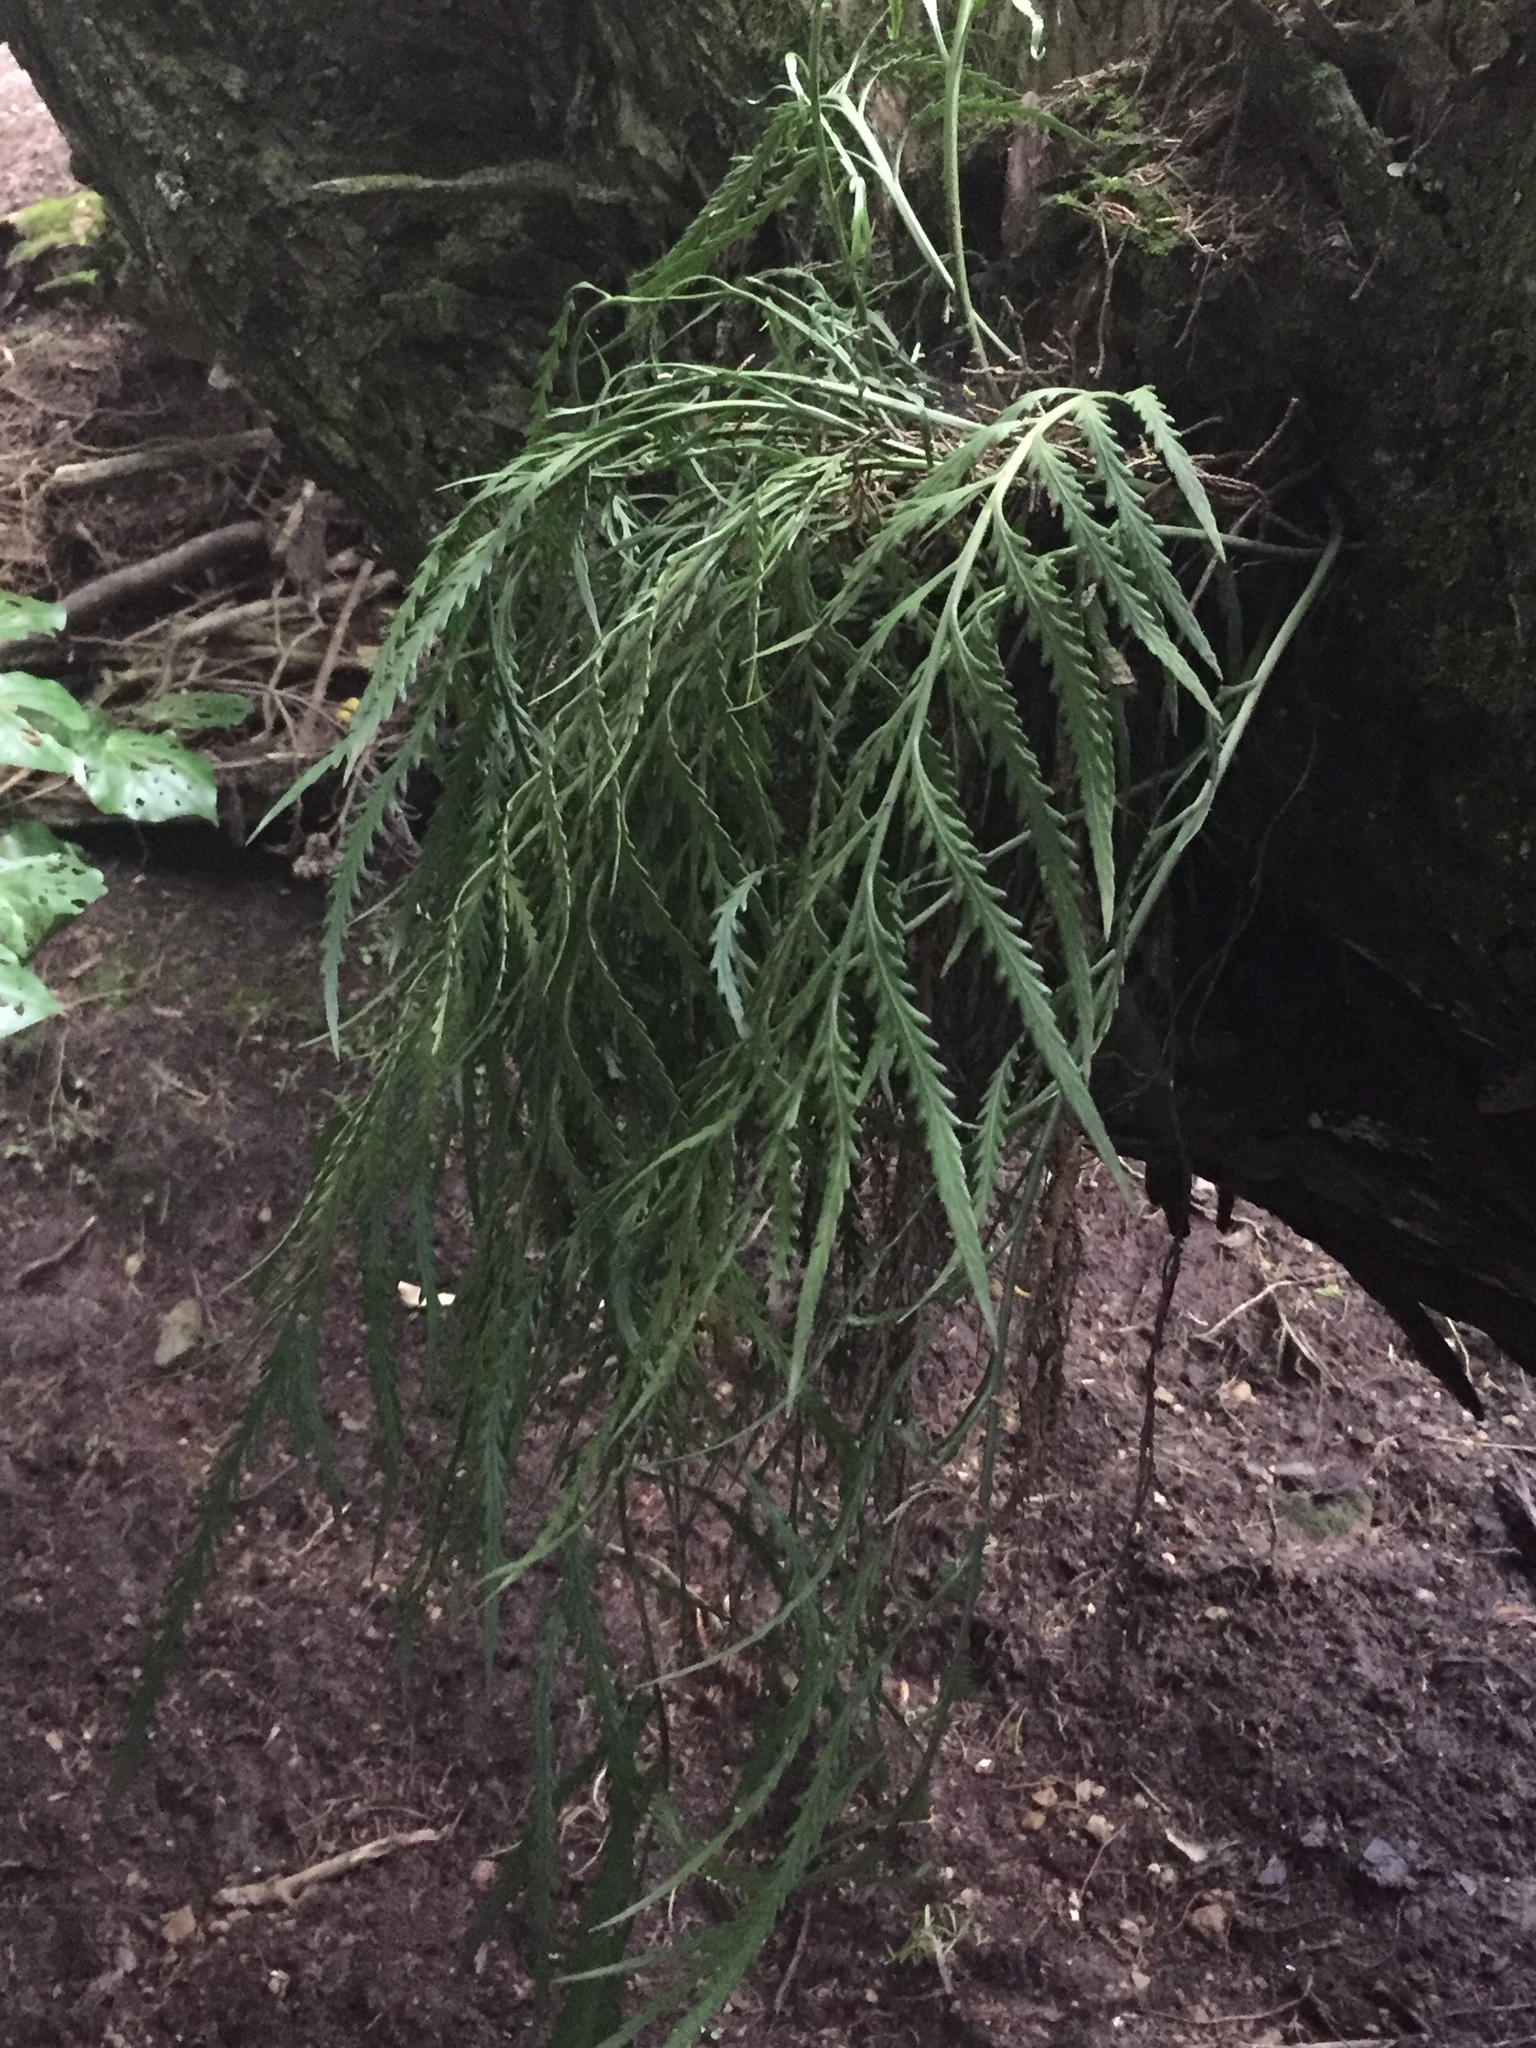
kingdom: Plantae
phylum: Tracheophyta
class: Polypodiopsida
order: Polypodiales
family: Aspleniaceae
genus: Asplenium
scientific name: Asplenium flaccidum
